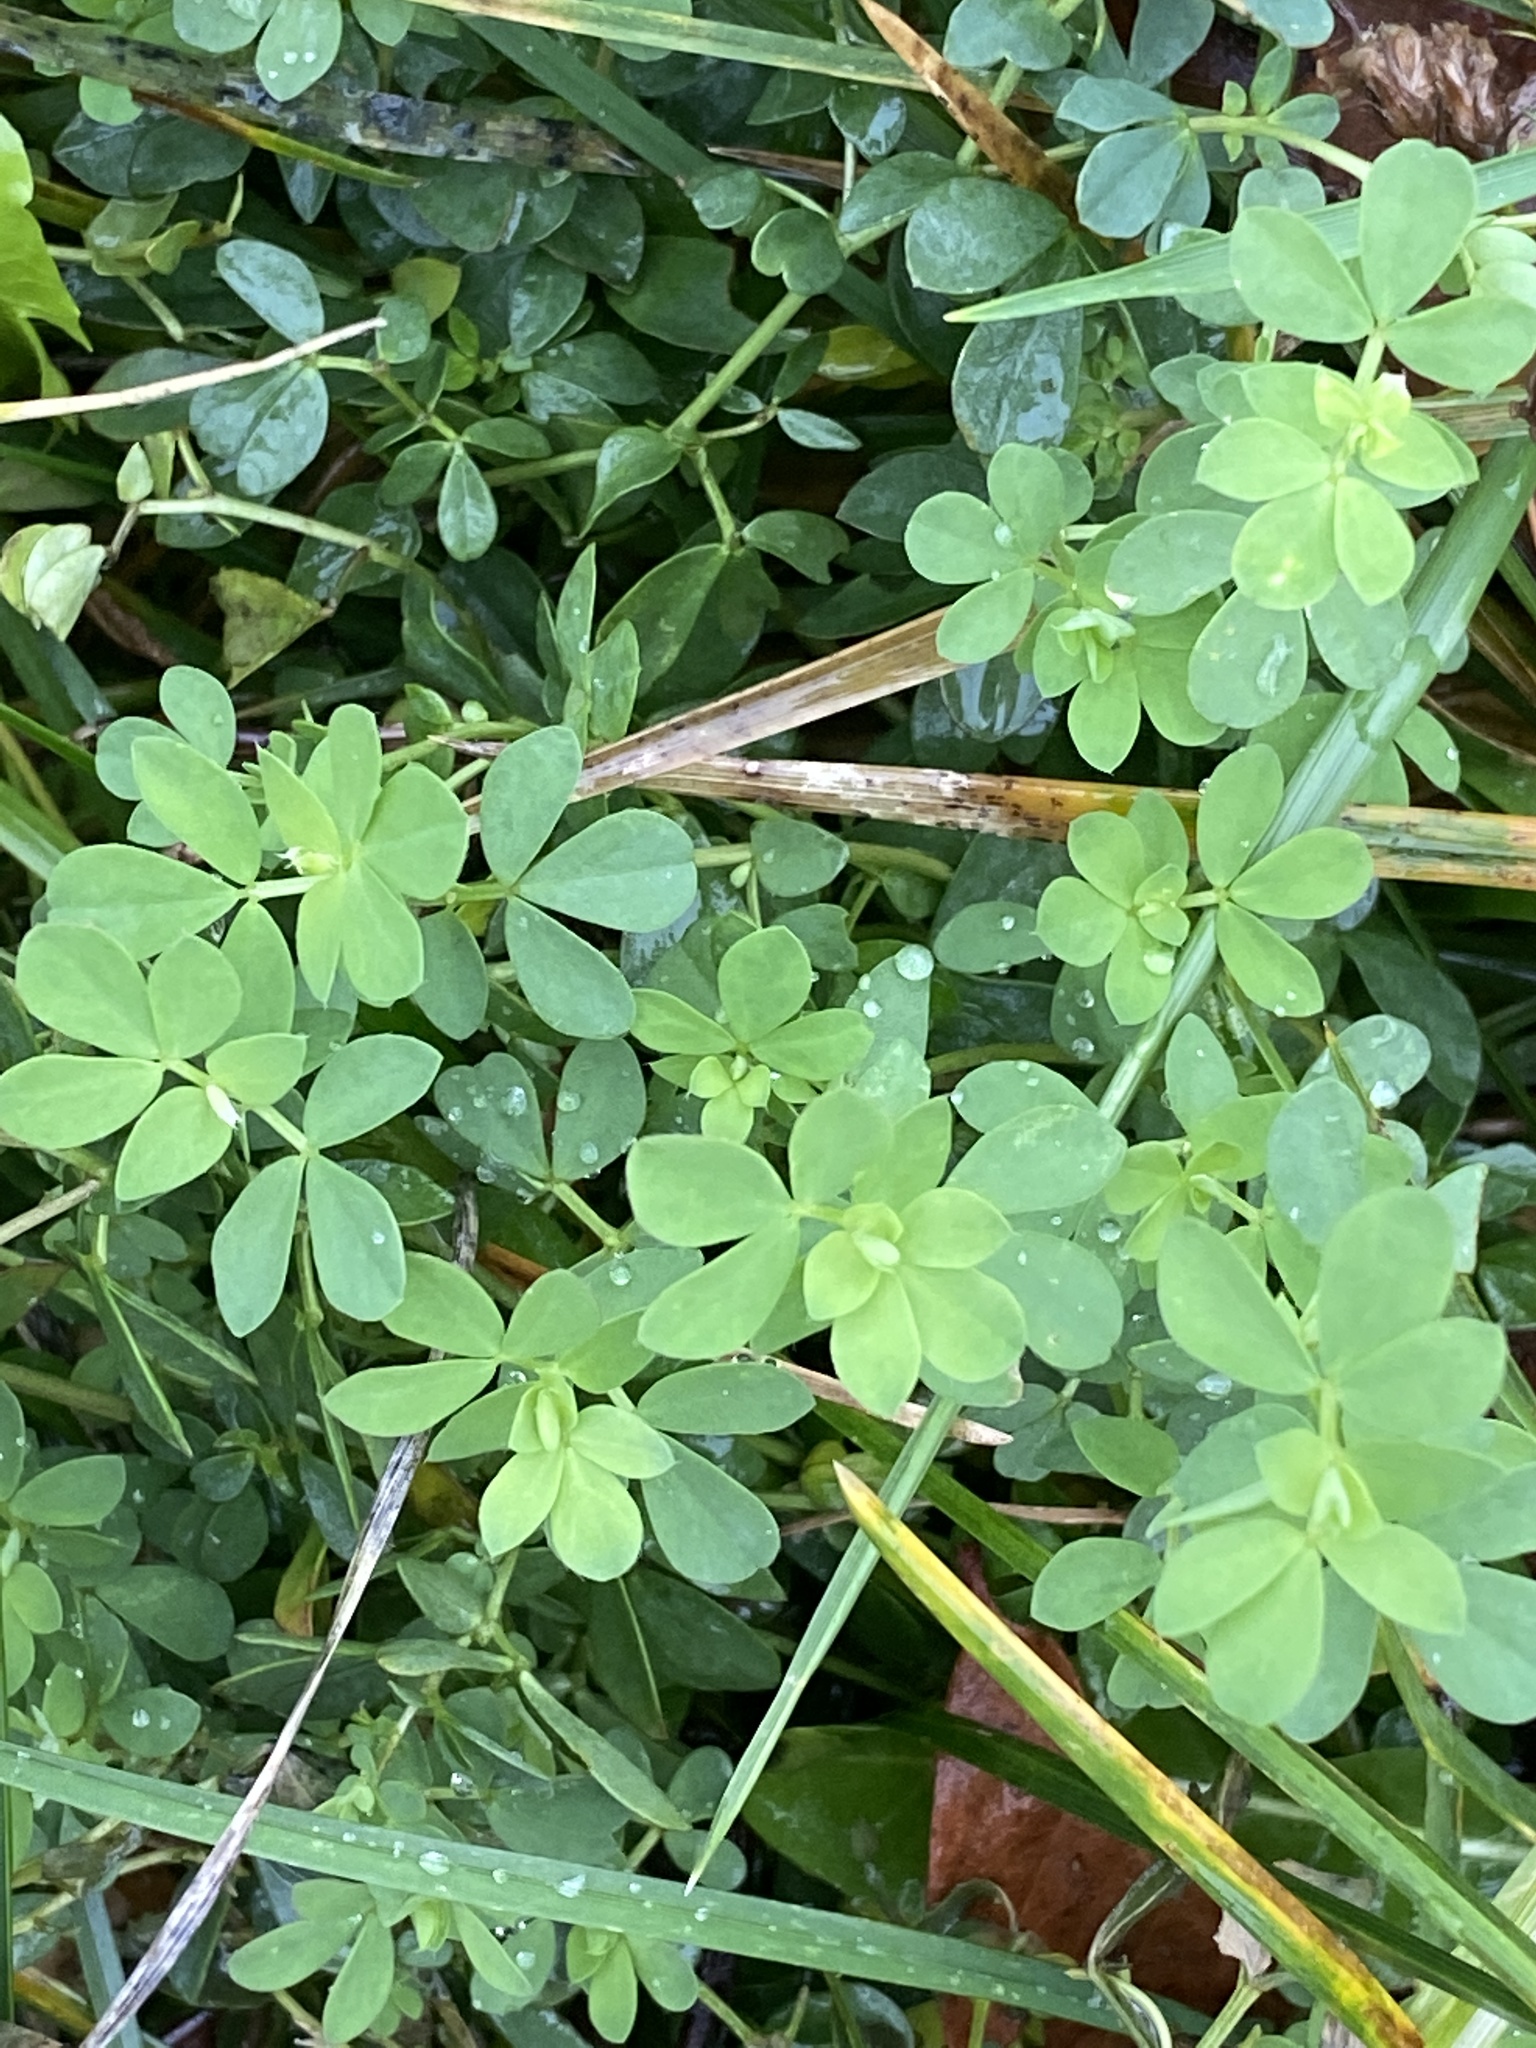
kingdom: Plantae
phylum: Tracheophyta
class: Magnoliopsida
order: Fabales
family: Fabaceae
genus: Lotus
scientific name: Lotus corniculatus
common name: Common bird's-foot-trefoil
